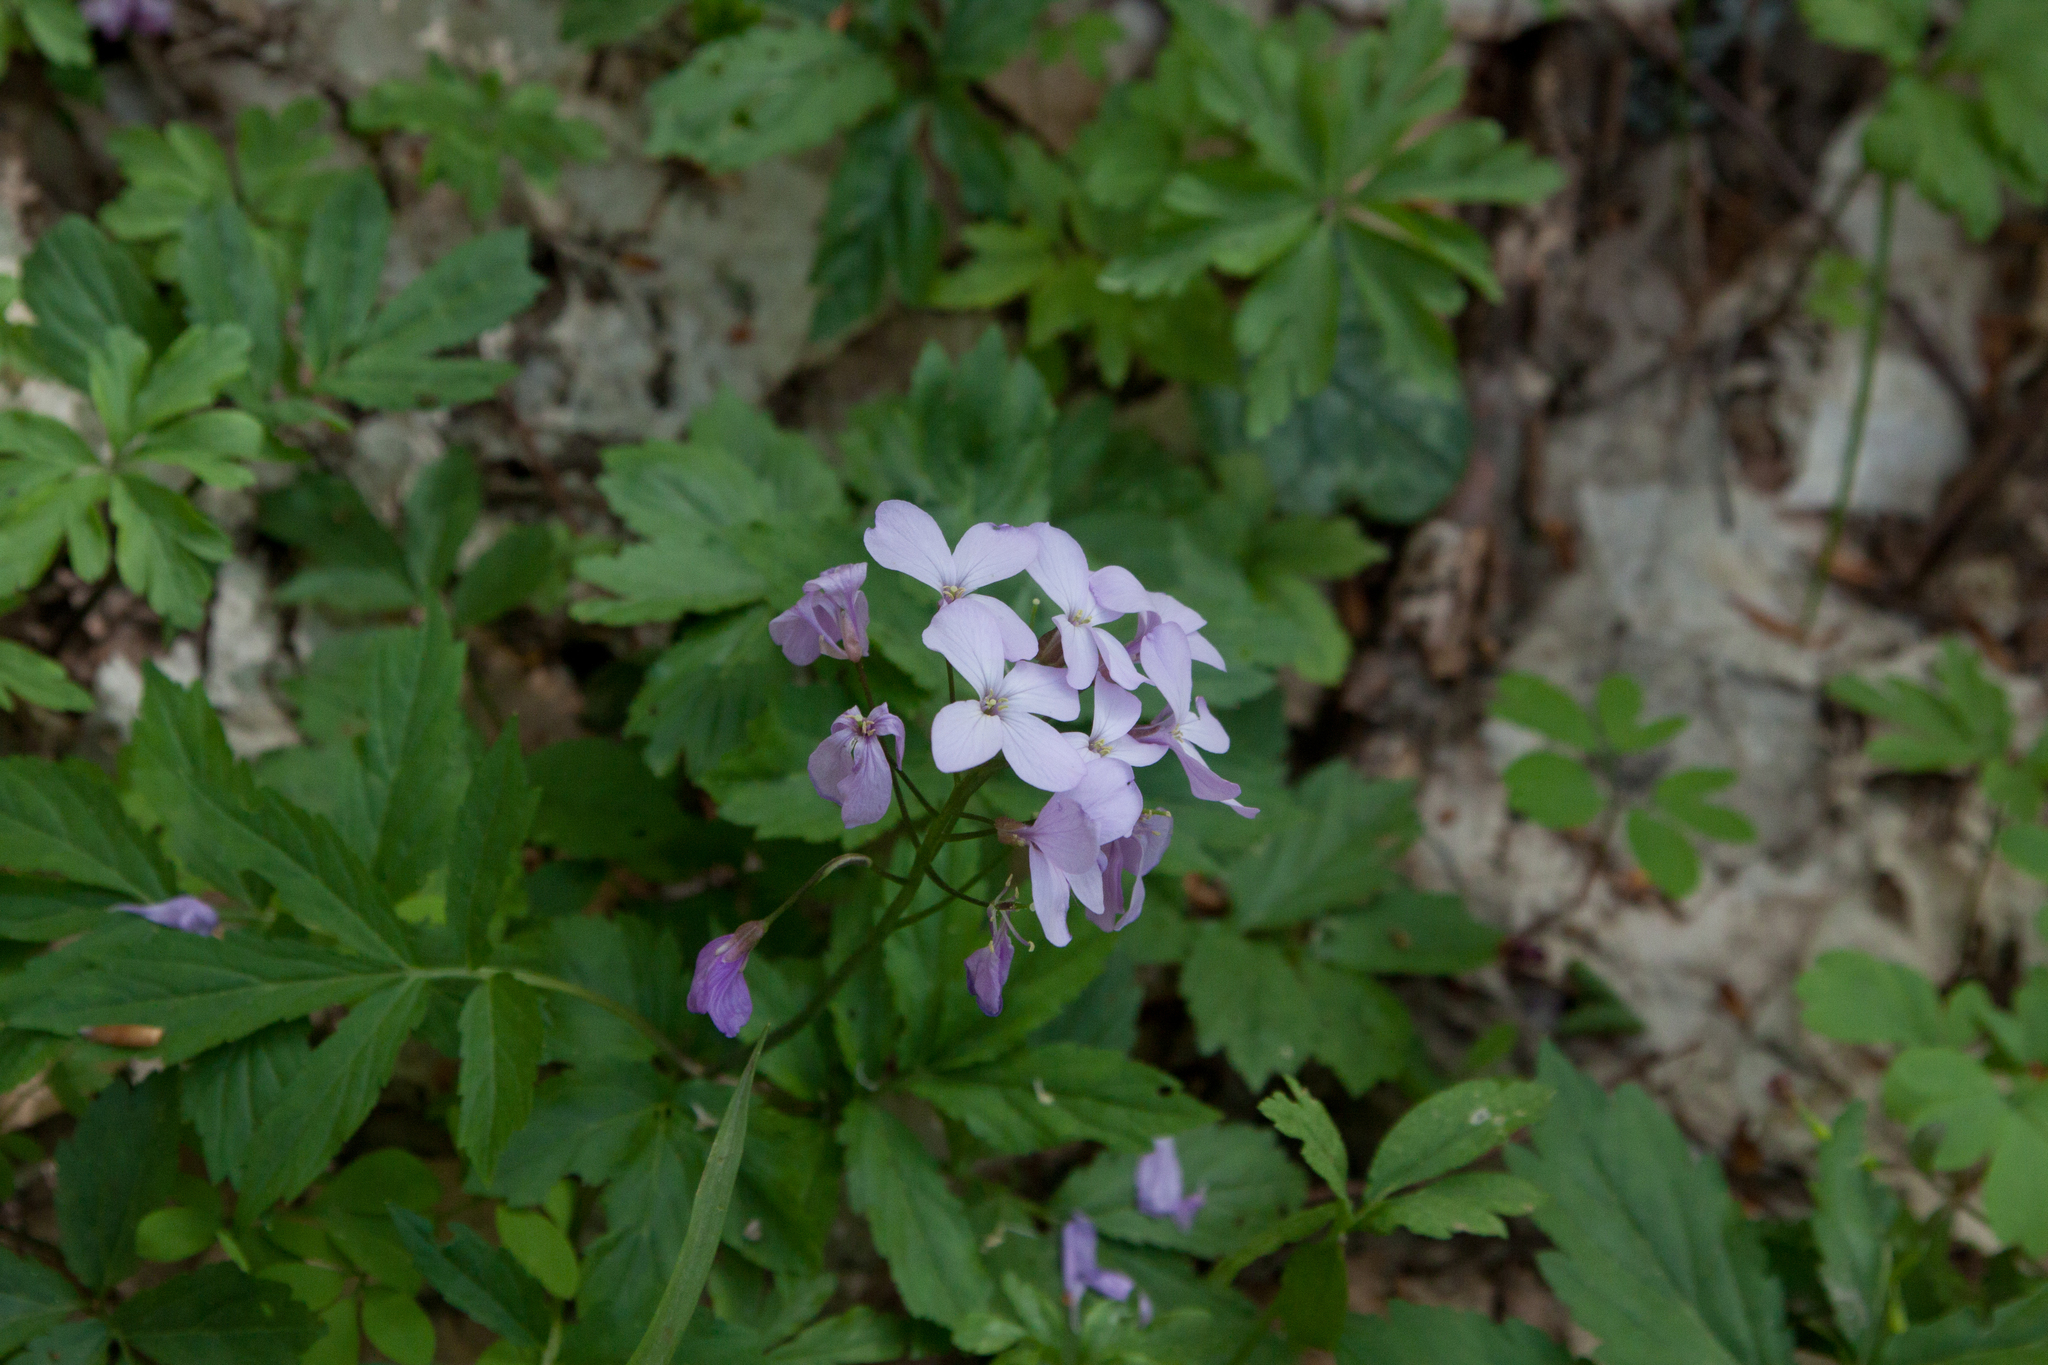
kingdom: Plantae
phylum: Tracheophyta
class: Magnoliopsida
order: Brassicales
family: Brassicaceae
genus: Cardamine
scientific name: Cardamine quinquefolia
